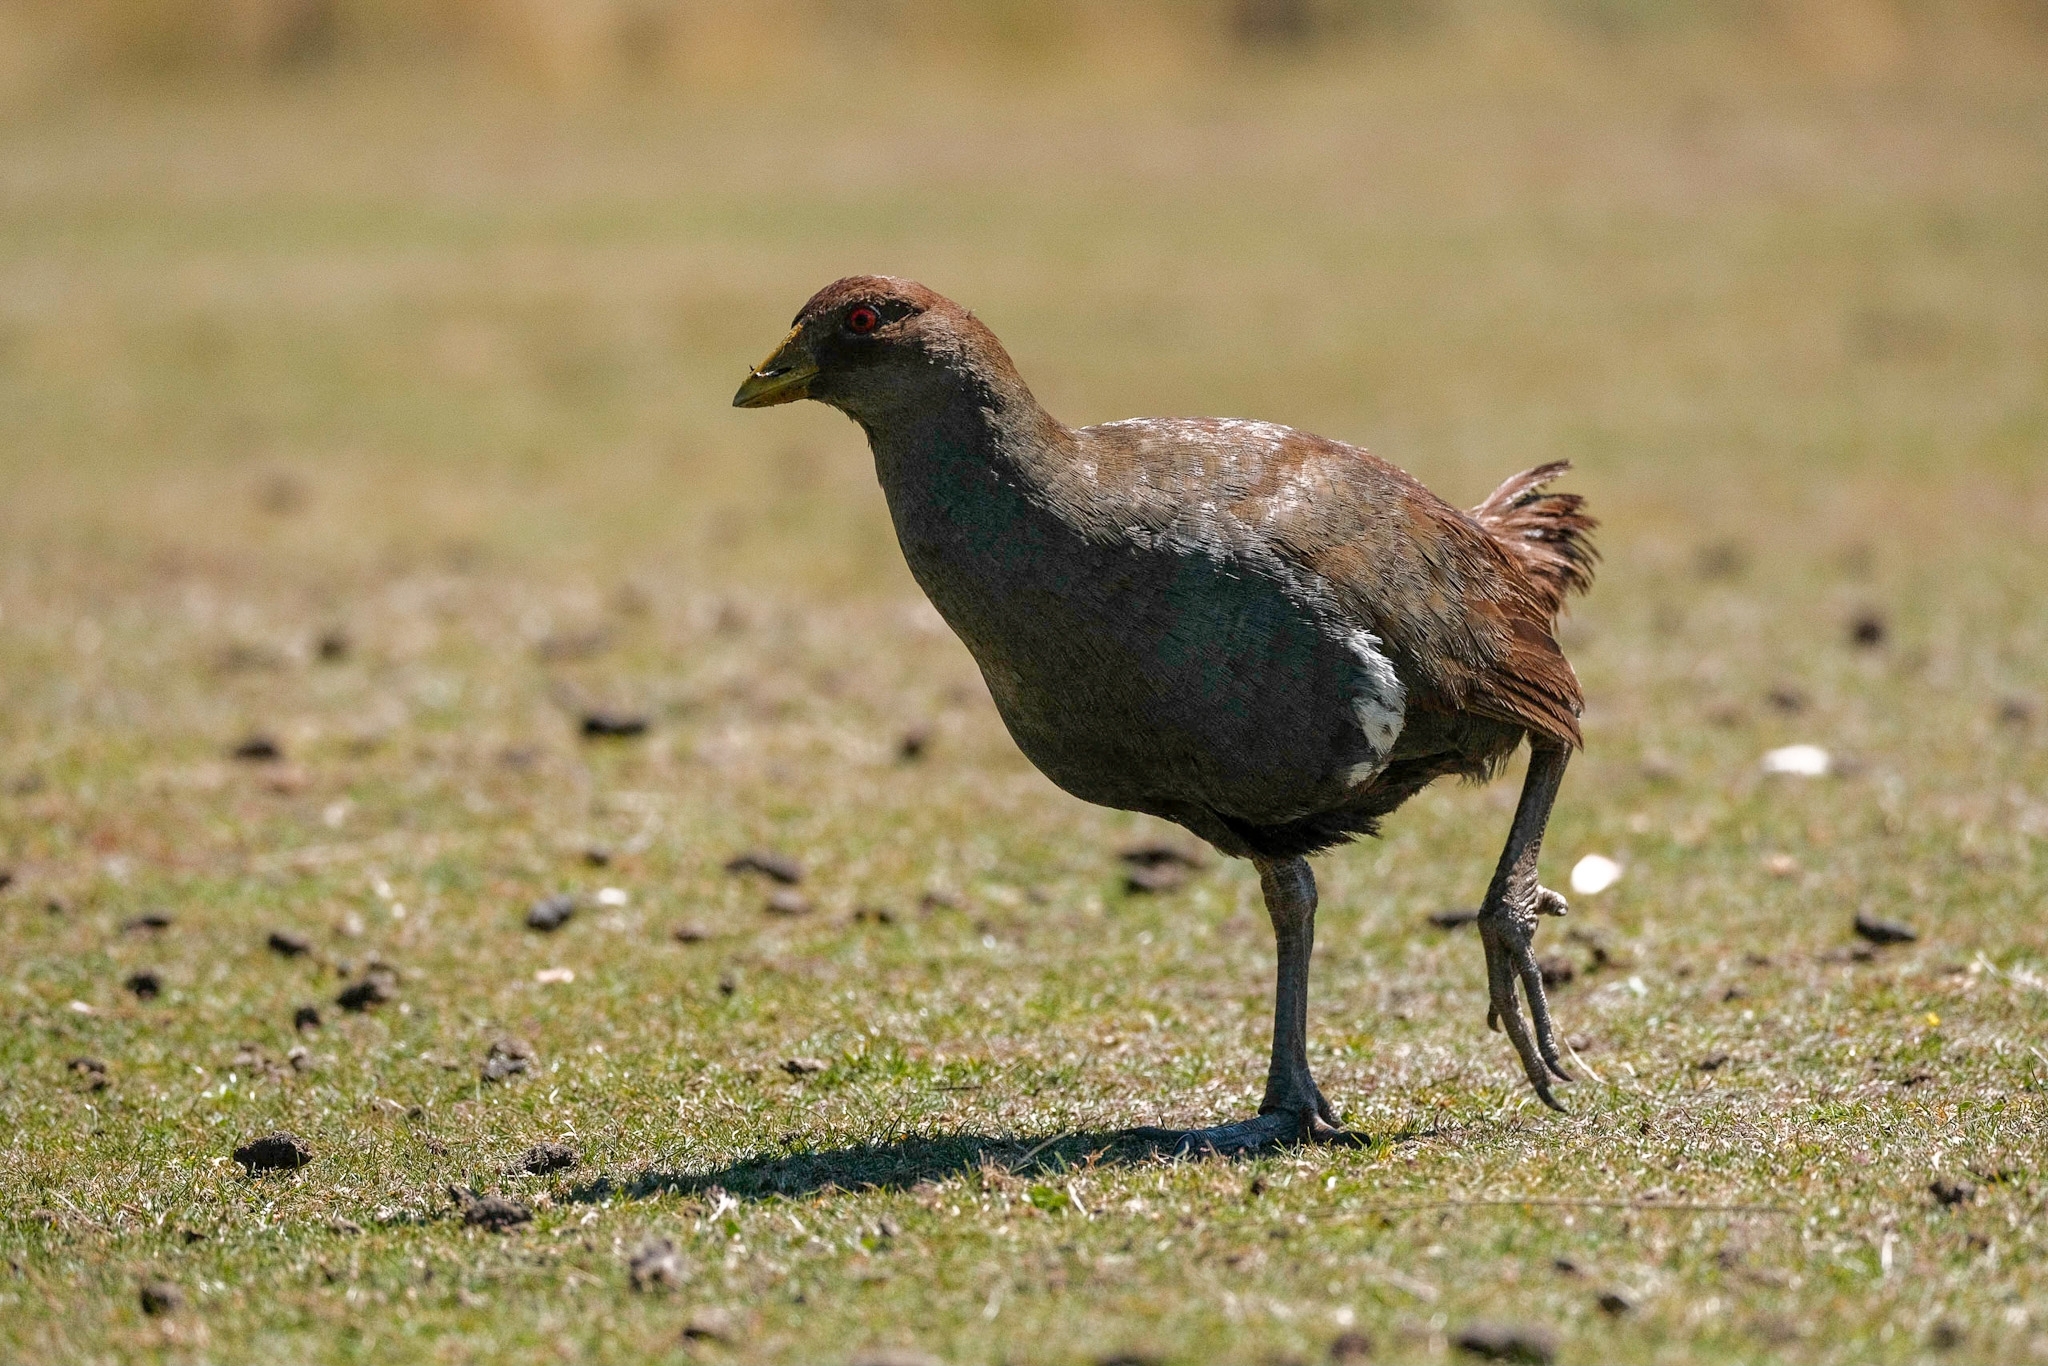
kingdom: Animalia
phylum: Chordata
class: Aves
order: Gruiformes
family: Rallidae
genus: Gallinula
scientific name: Gallinula mortierii
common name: Tasmanian nativehen
